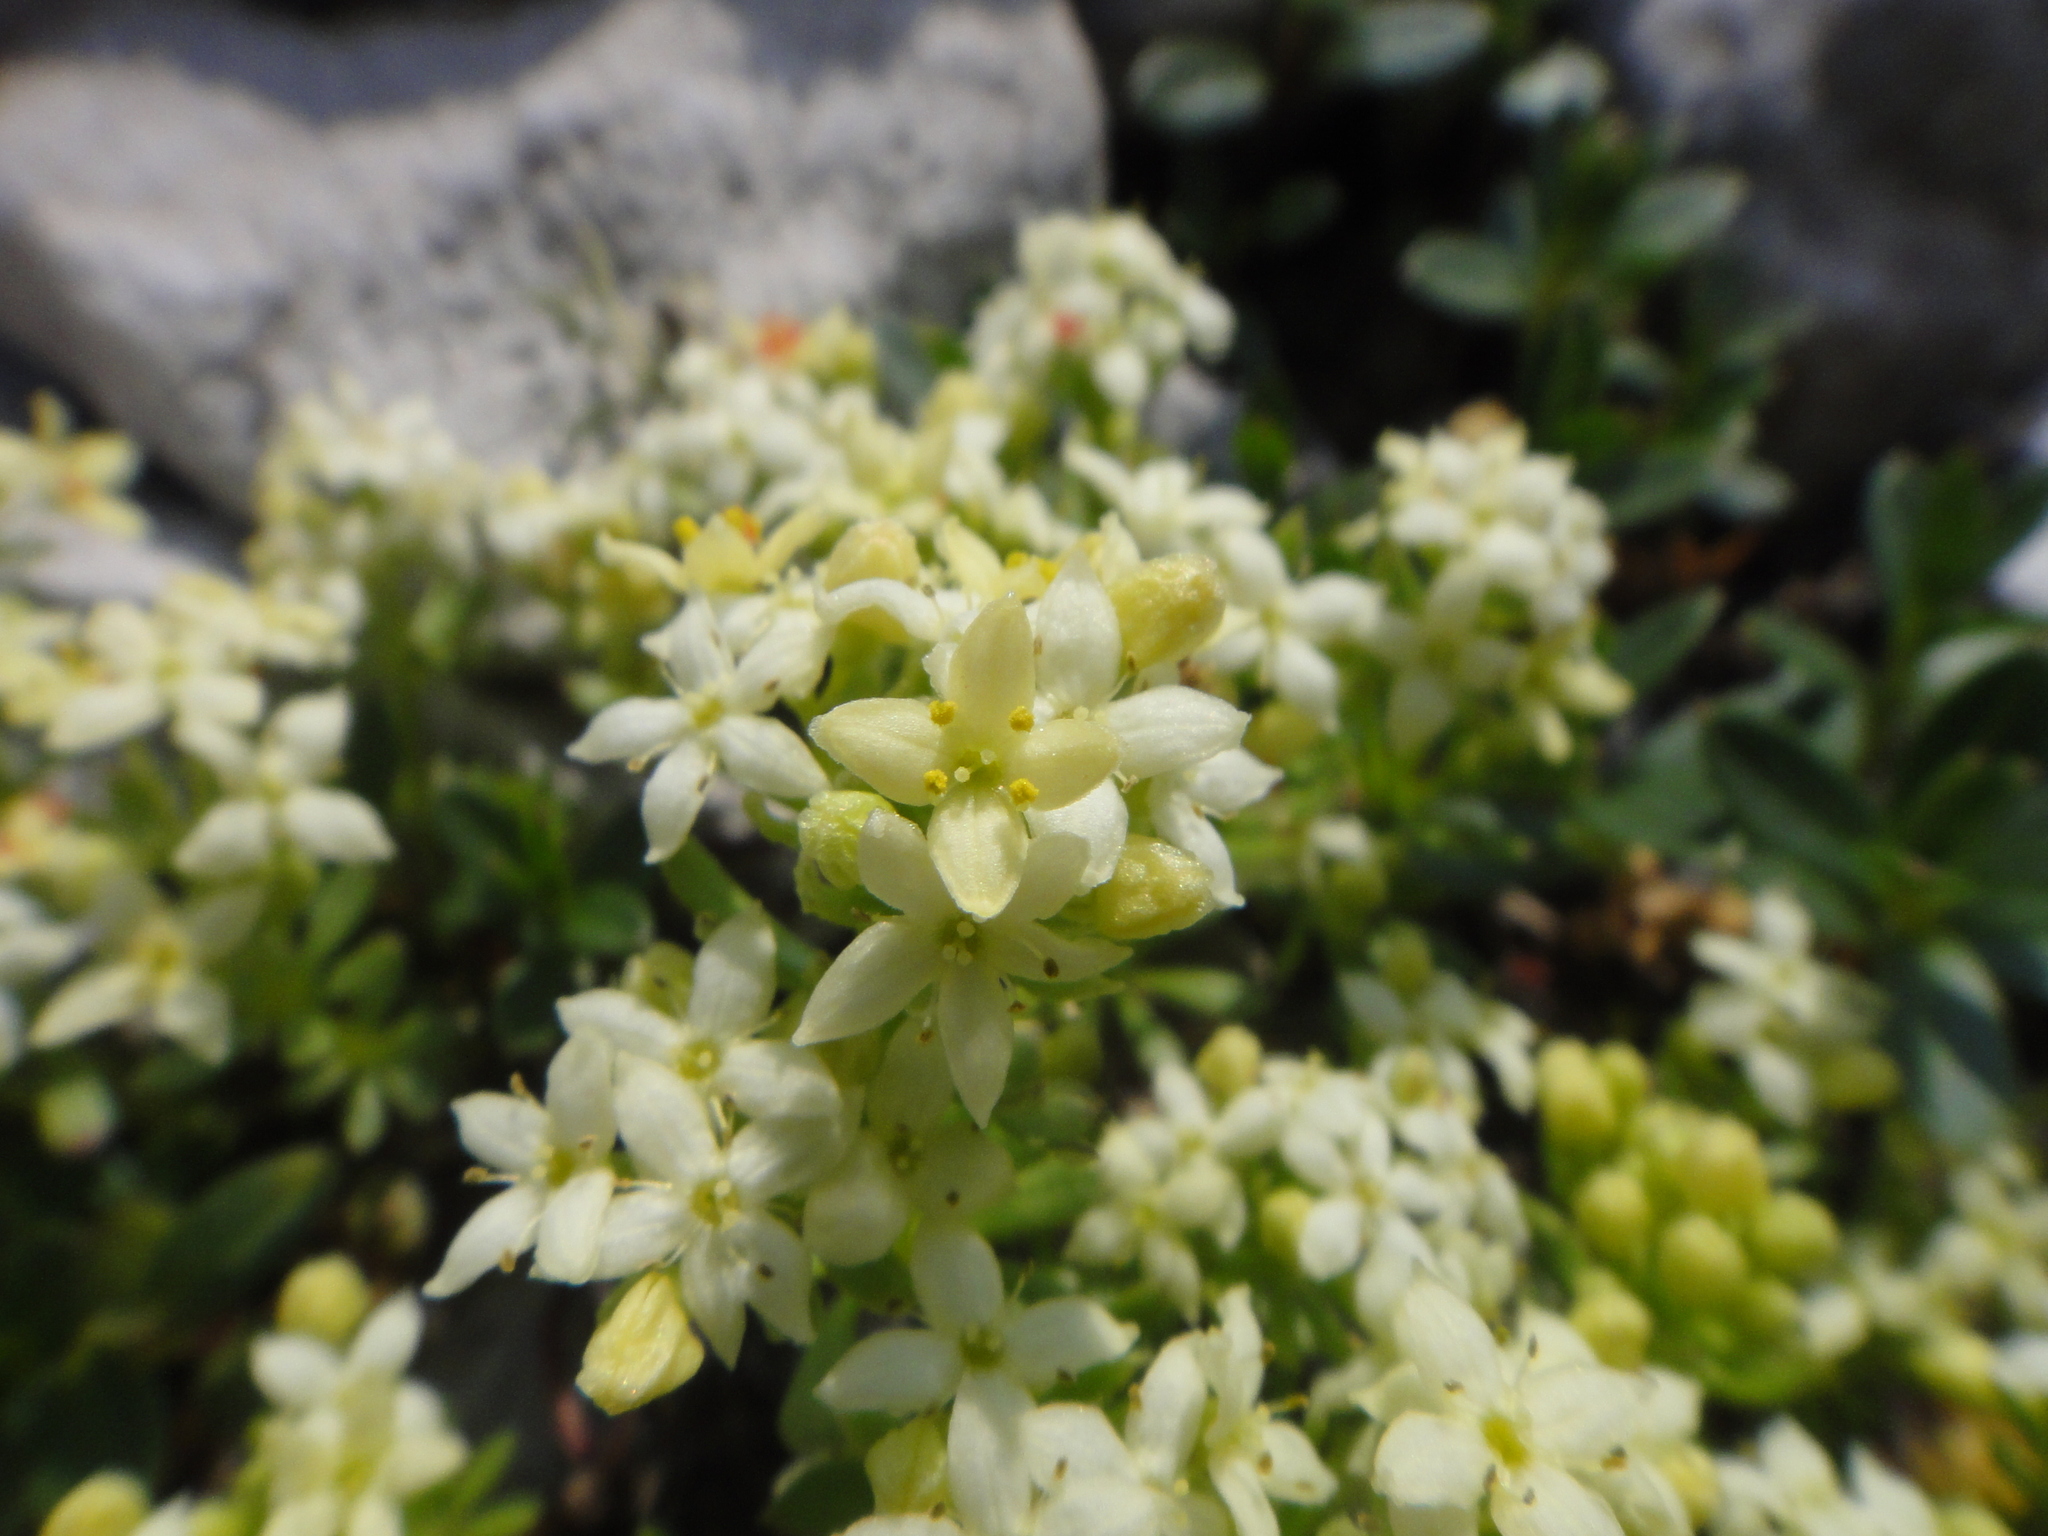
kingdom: Plantae
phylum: Tracheophyta
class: Magnoliopsida
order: Gentianales
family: Rubiaceae
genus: Galium
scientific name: Galium megalospermum
